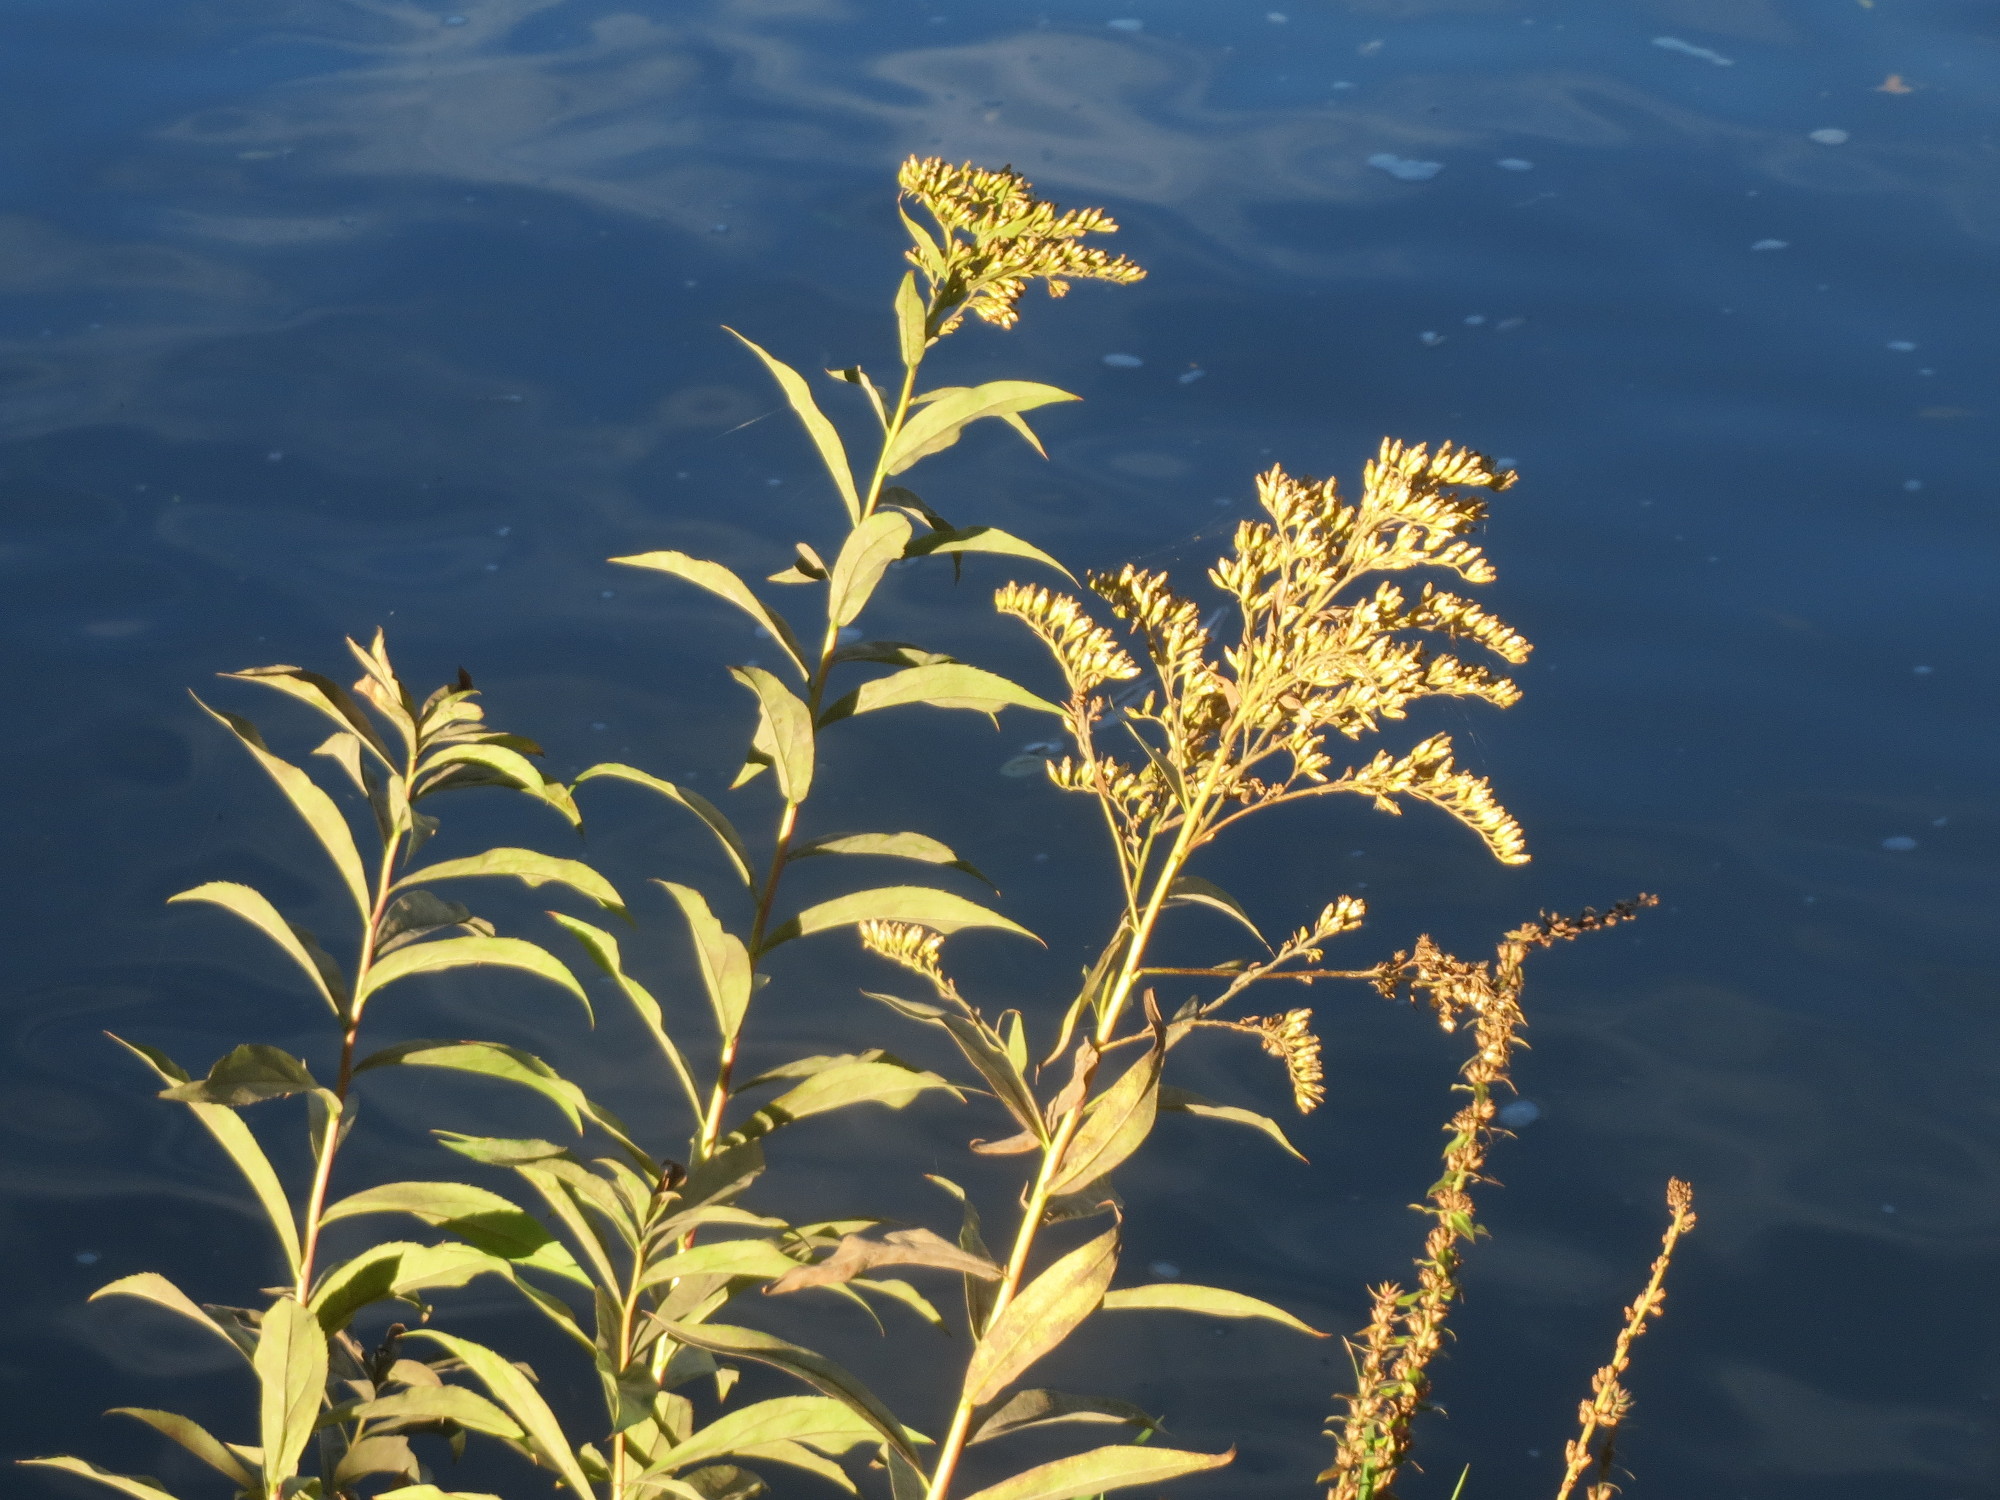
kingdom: Plantae
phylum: Tracheophyta
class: Magnoliopsida
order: Asterales
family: Asteraceae
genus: Solidago
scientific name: Solidago canadensis
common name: Canada goldenrod
